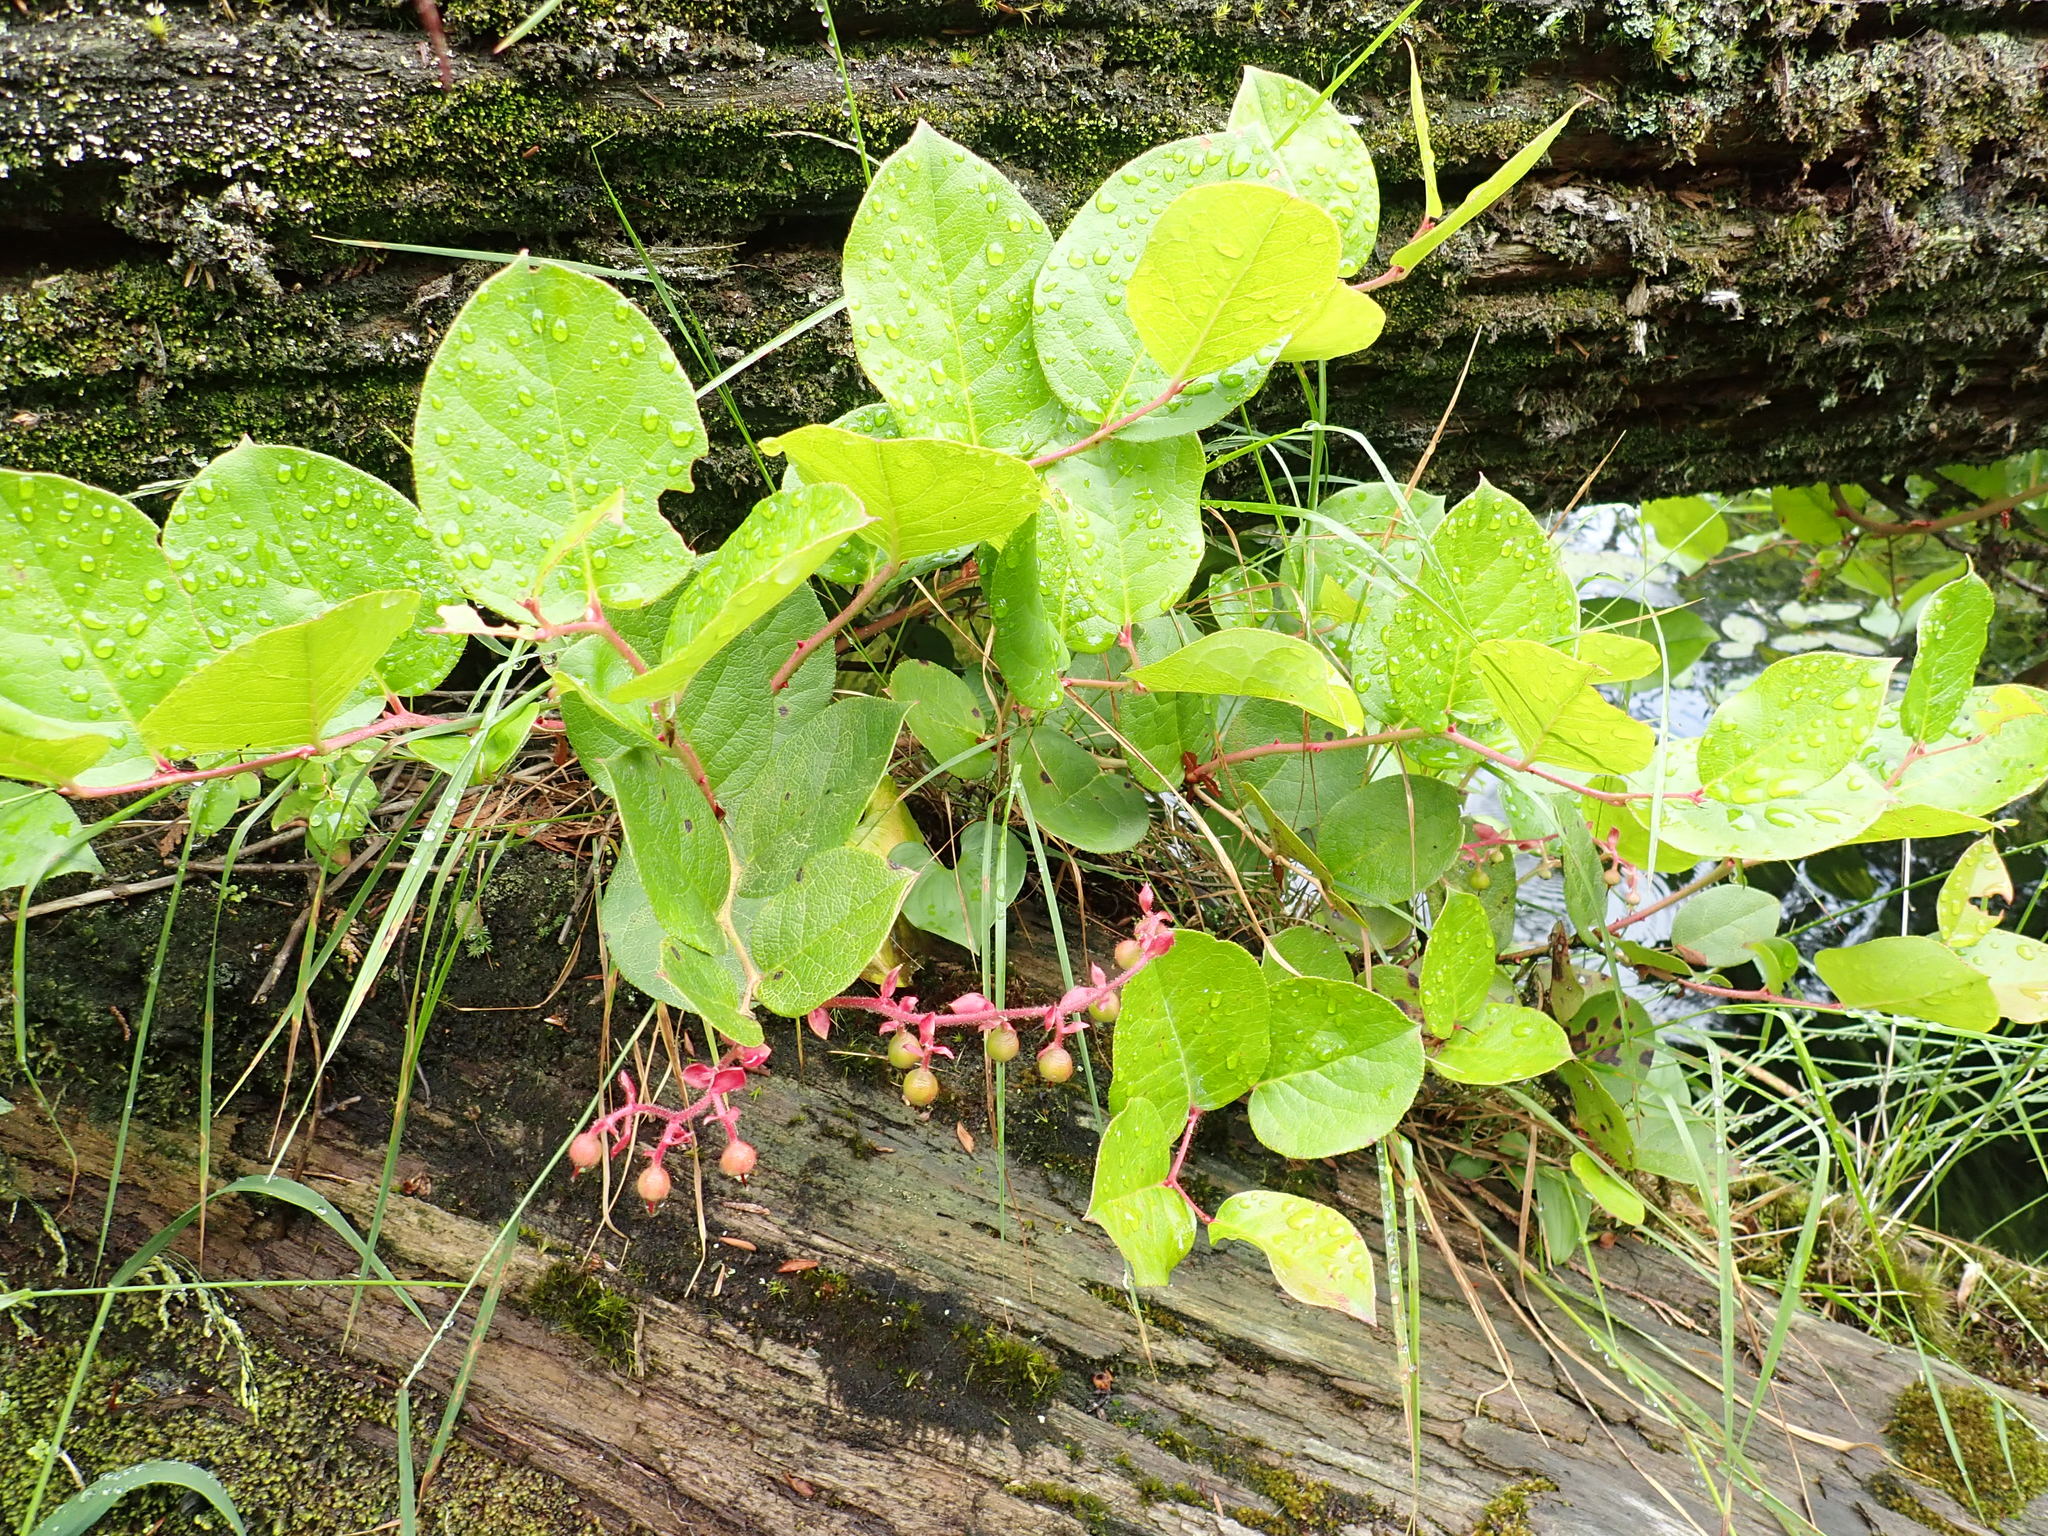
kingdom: Plantae
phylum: Tracheophyta
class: Magnoliopsida
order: Ericales
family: Ericaceae
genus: Gaultheria
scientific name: Gaultheria shallon
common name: Shallon
